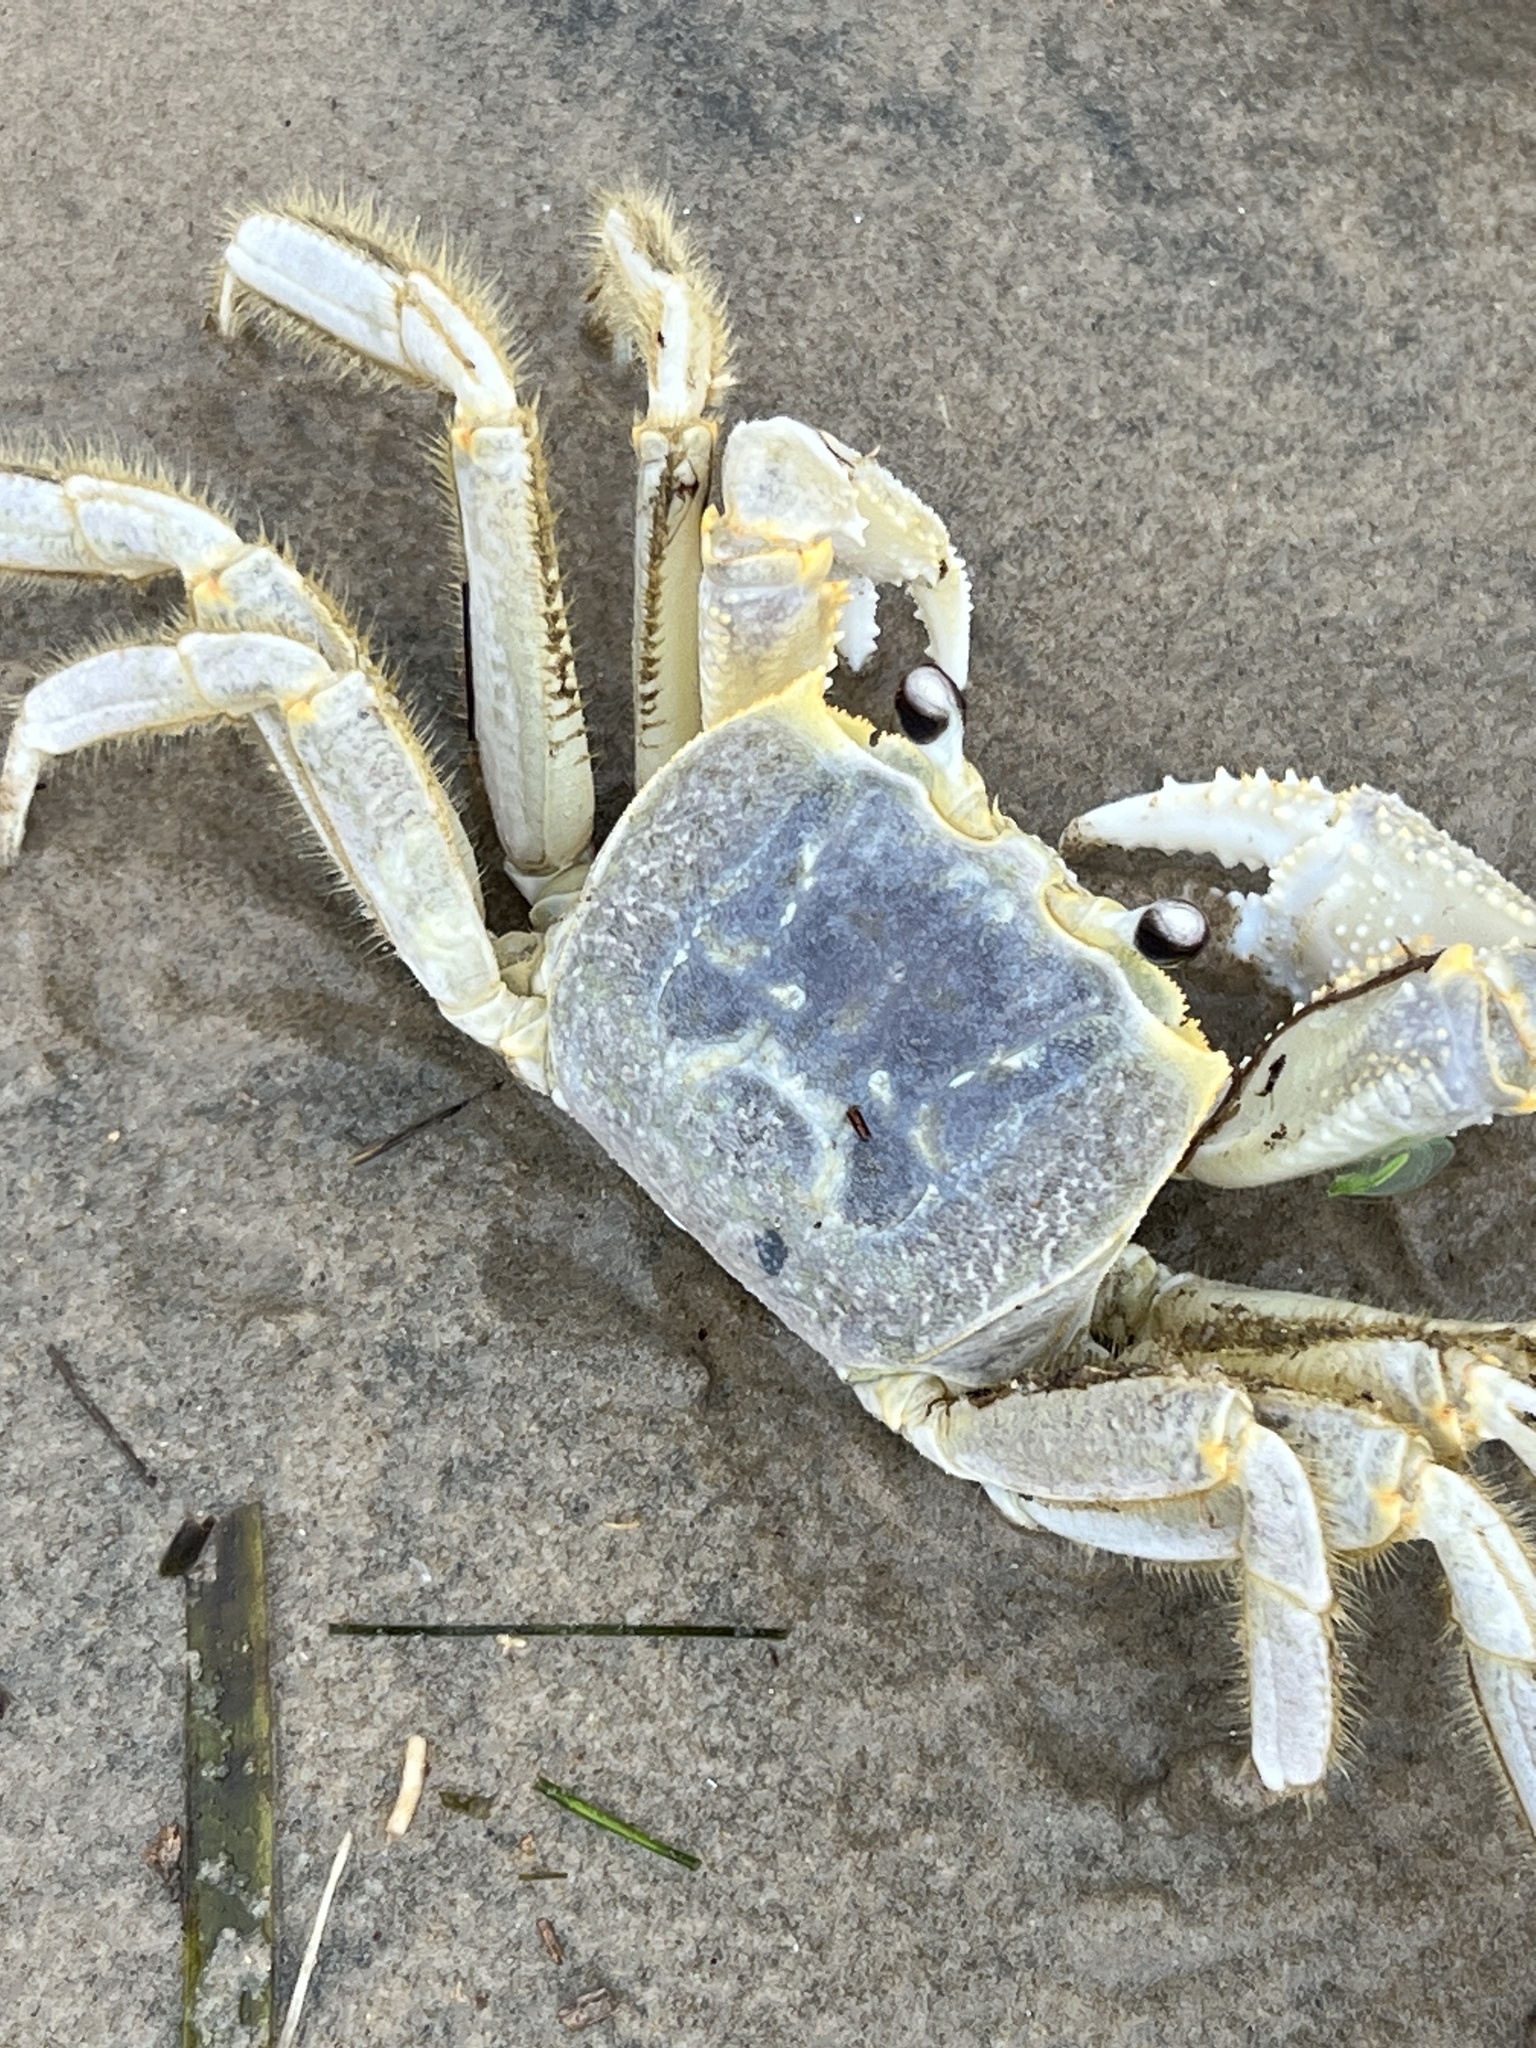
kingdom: Animalia
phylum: Arthropoda
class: Malacostraca
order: Decapoda
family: Ocypodidae
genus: Ocypode
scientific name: Ocypode quadrata
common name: Ghost crab
